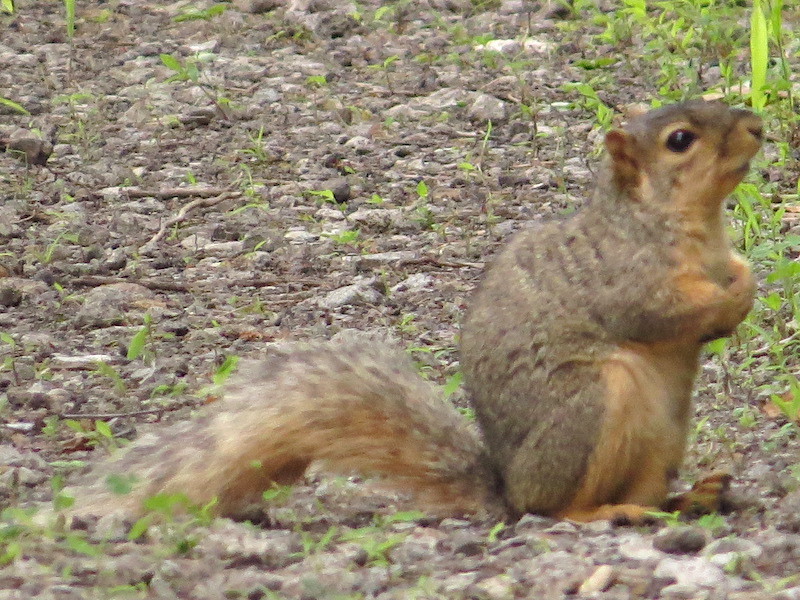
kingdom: Animalia
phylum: Chordata
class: Mammalia
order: Rodentia
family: Sciuridae
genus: Sciurus
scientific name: Sciurus niger
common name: Fox squirrel
